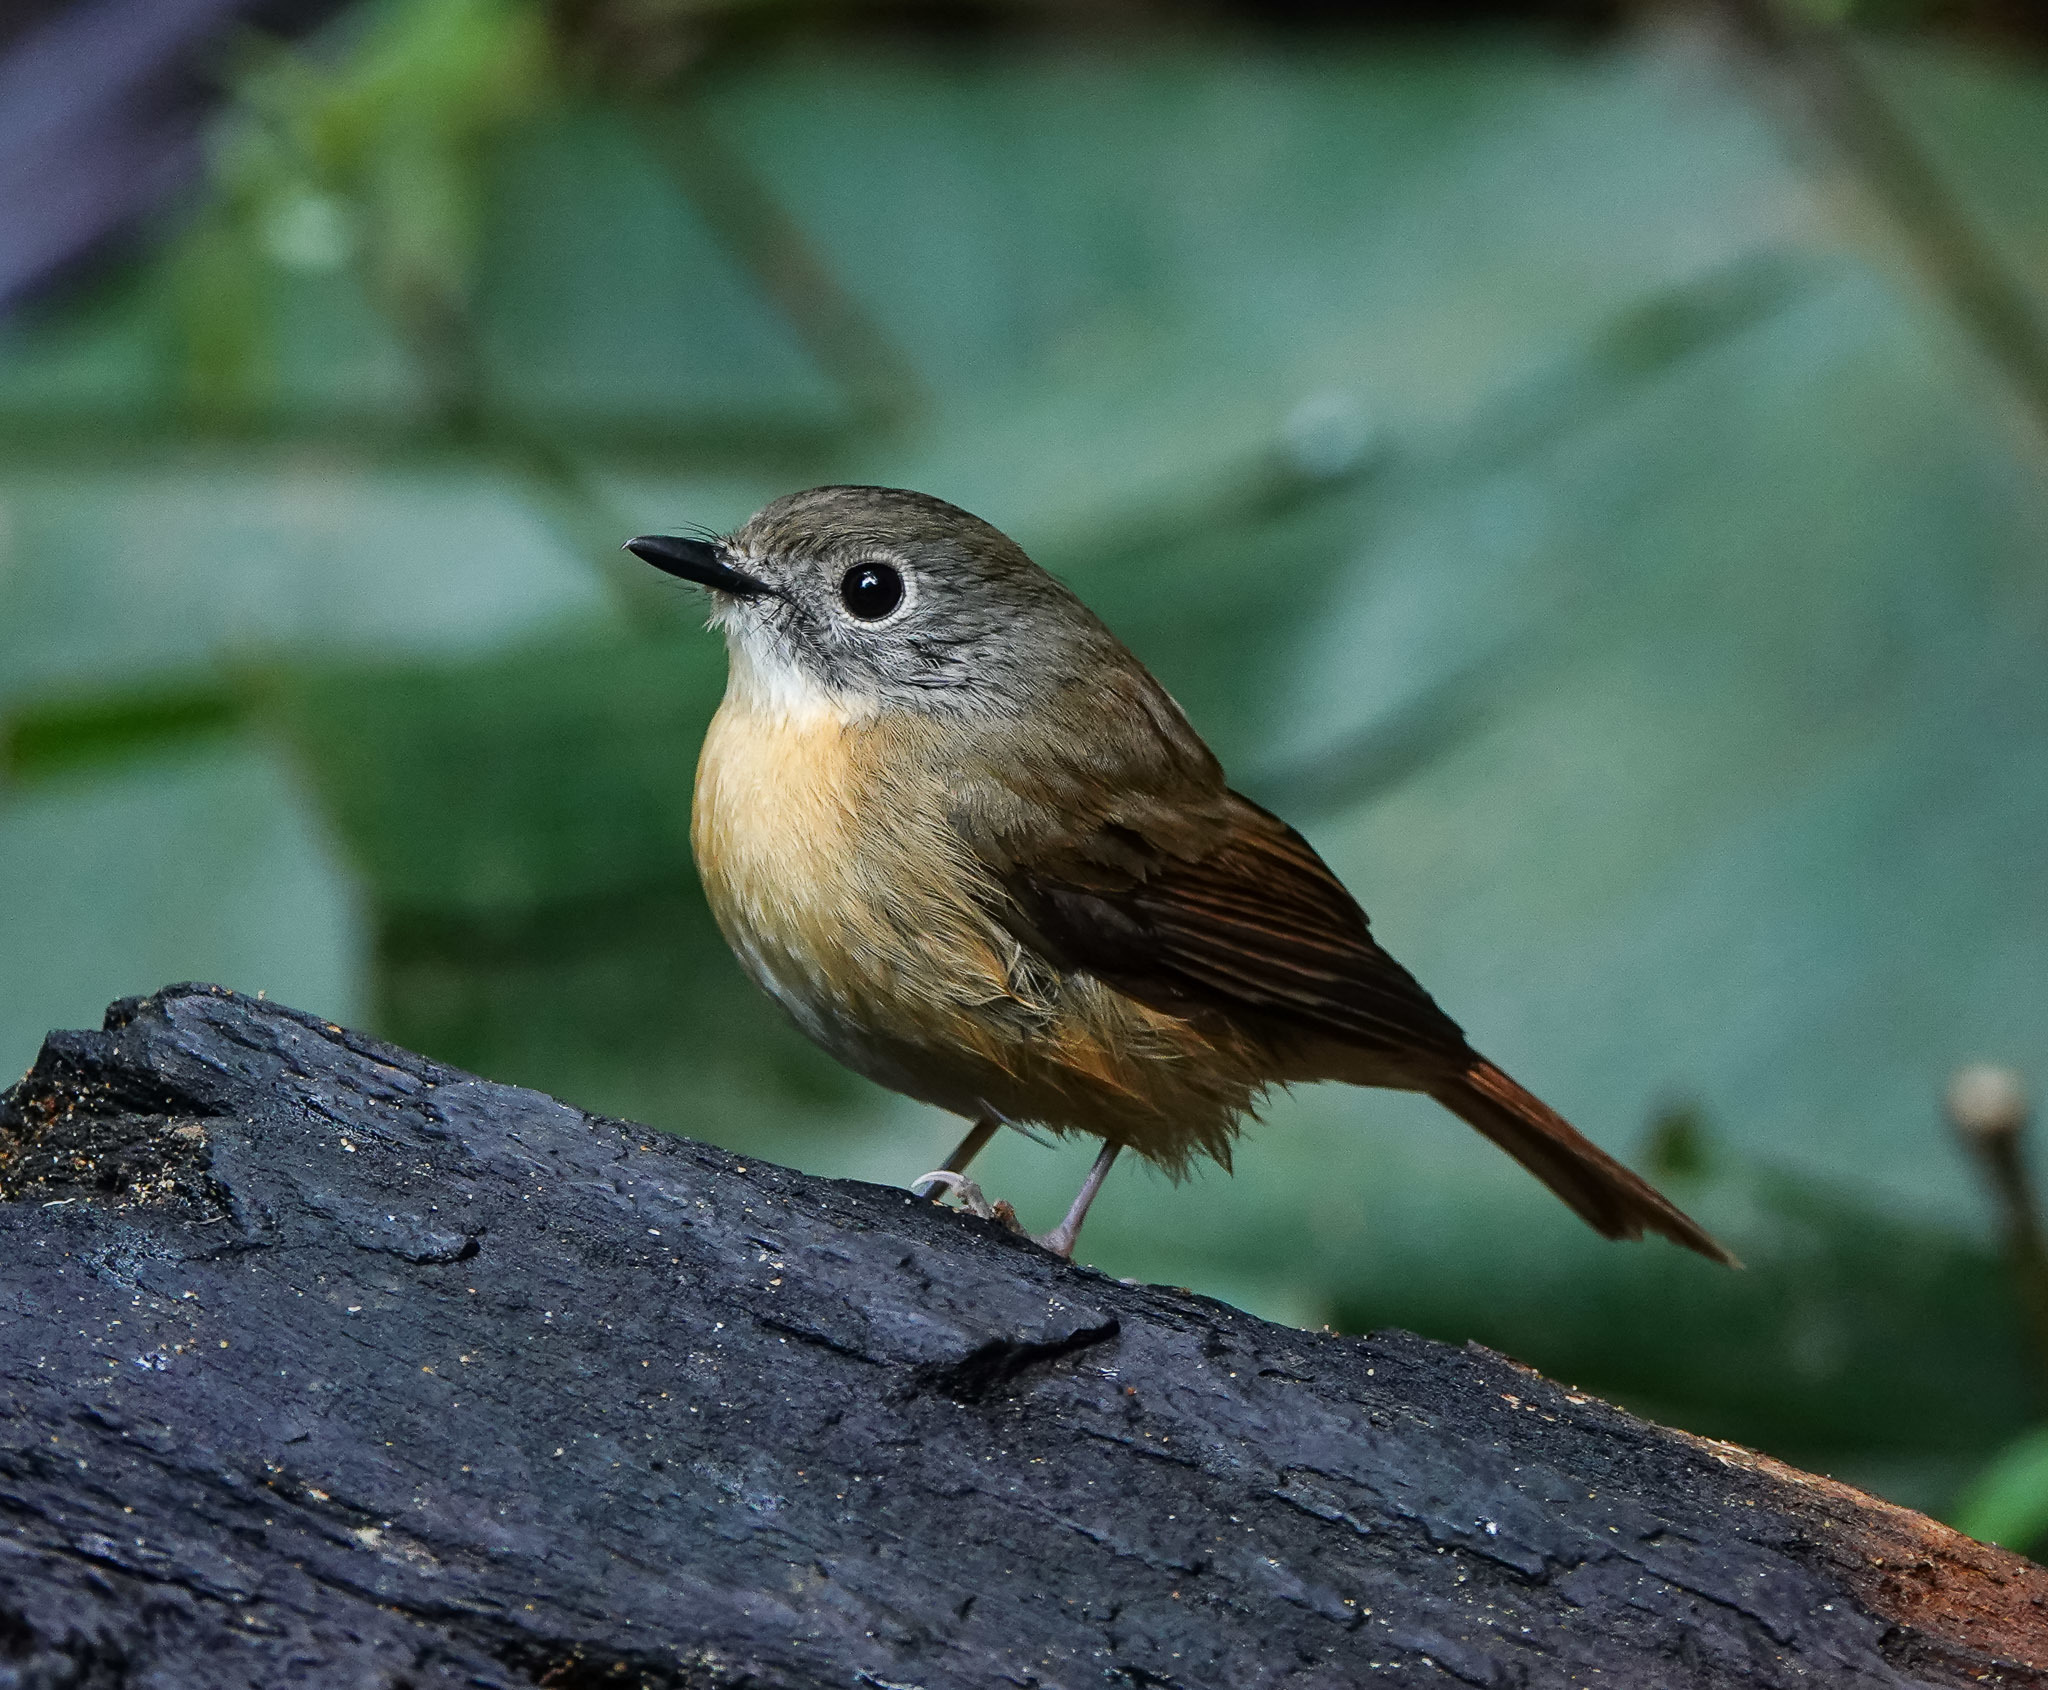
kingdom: Animalia
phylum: Chordata
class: Aves
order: Passeriformes
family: Muscicapidae
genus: Cyornis
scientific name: Cyornis poliogenys
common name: Pale-chinned blue flycatcher
